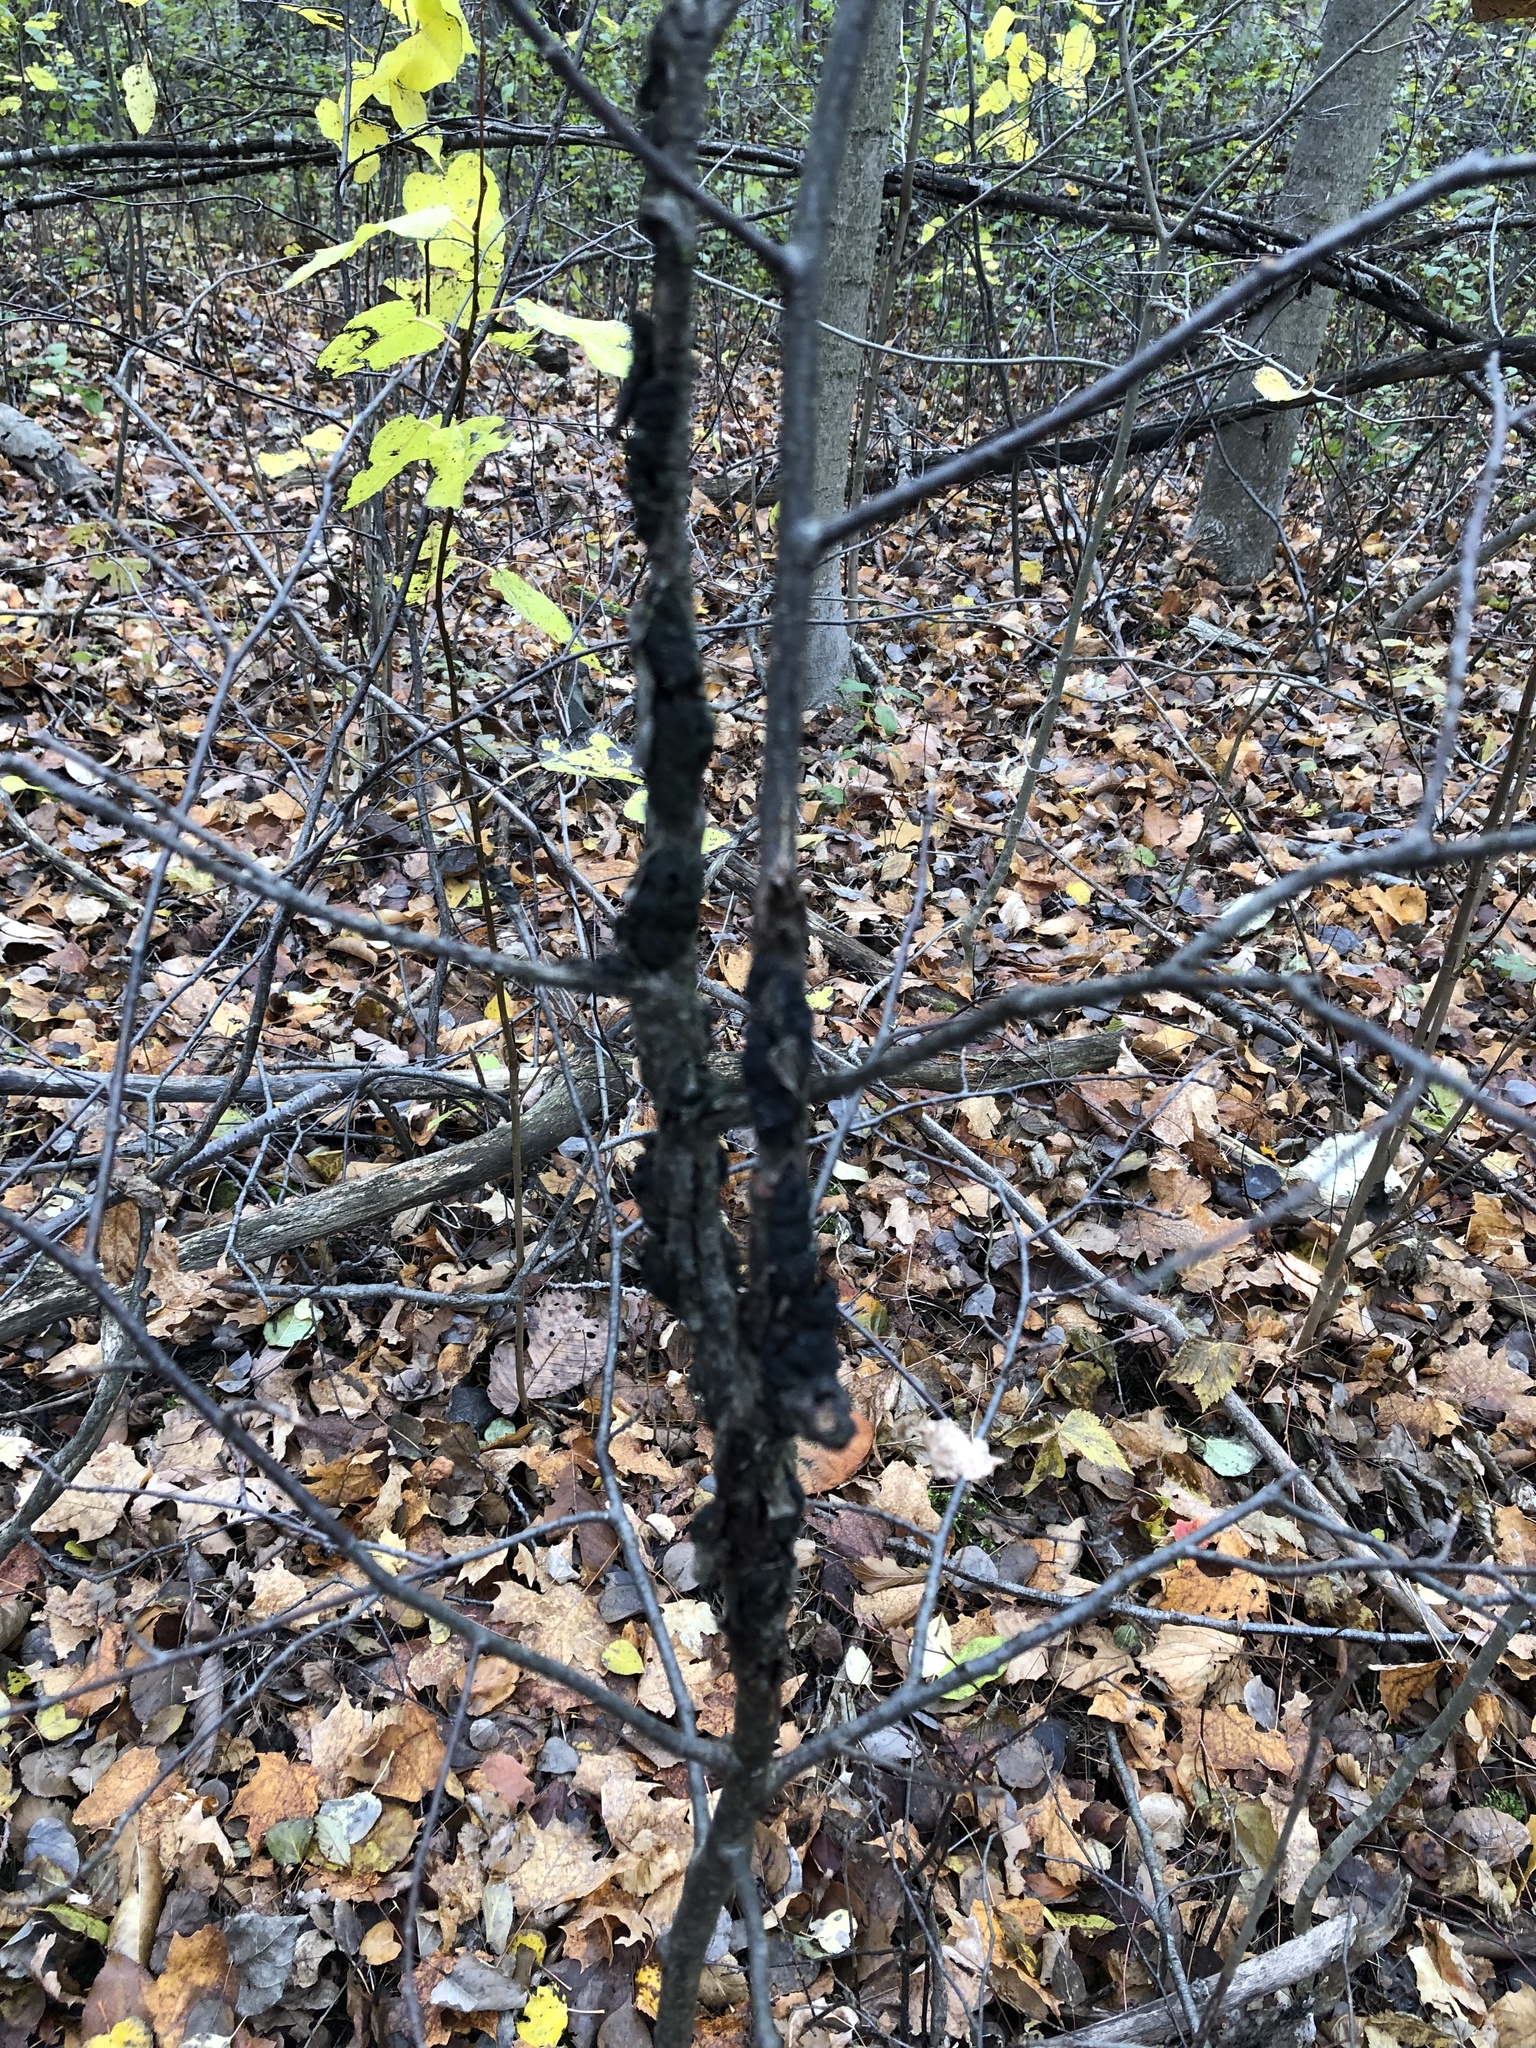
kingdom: Fungi
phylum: Ascomycota
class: Dothideomycetes
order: Venturiales
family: Venturiaceae
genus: Apiosporina
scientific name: Apiosporina morbosa
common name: Black knot
